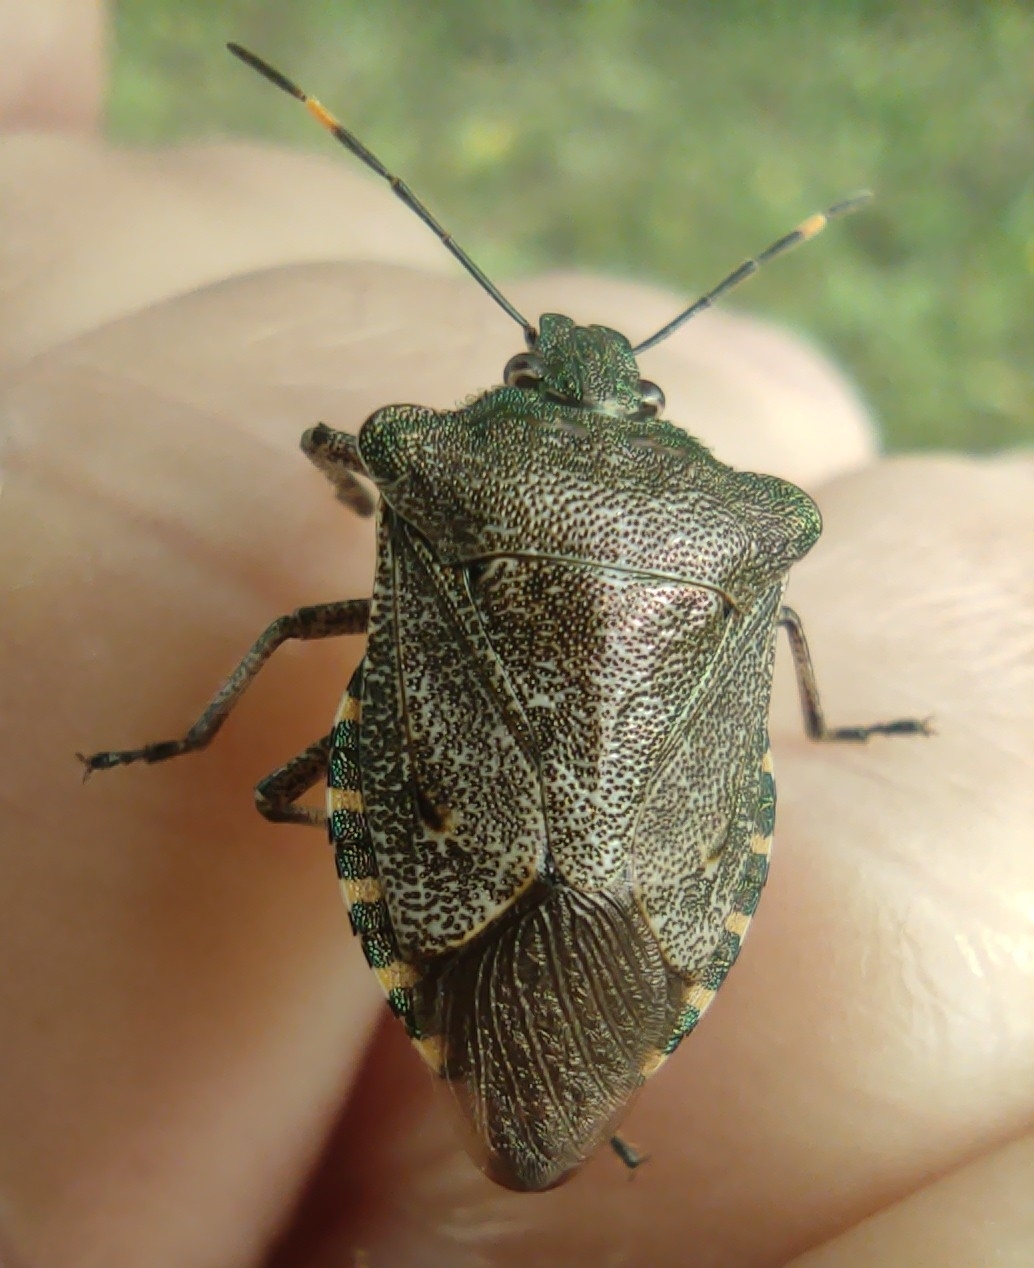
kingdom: Animalia
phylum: Arthropoda
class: Insecta
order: Hemiptera
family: Pentatomidae
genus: Troilus
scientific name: Troilus luridus
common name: Bronze shieldbug
